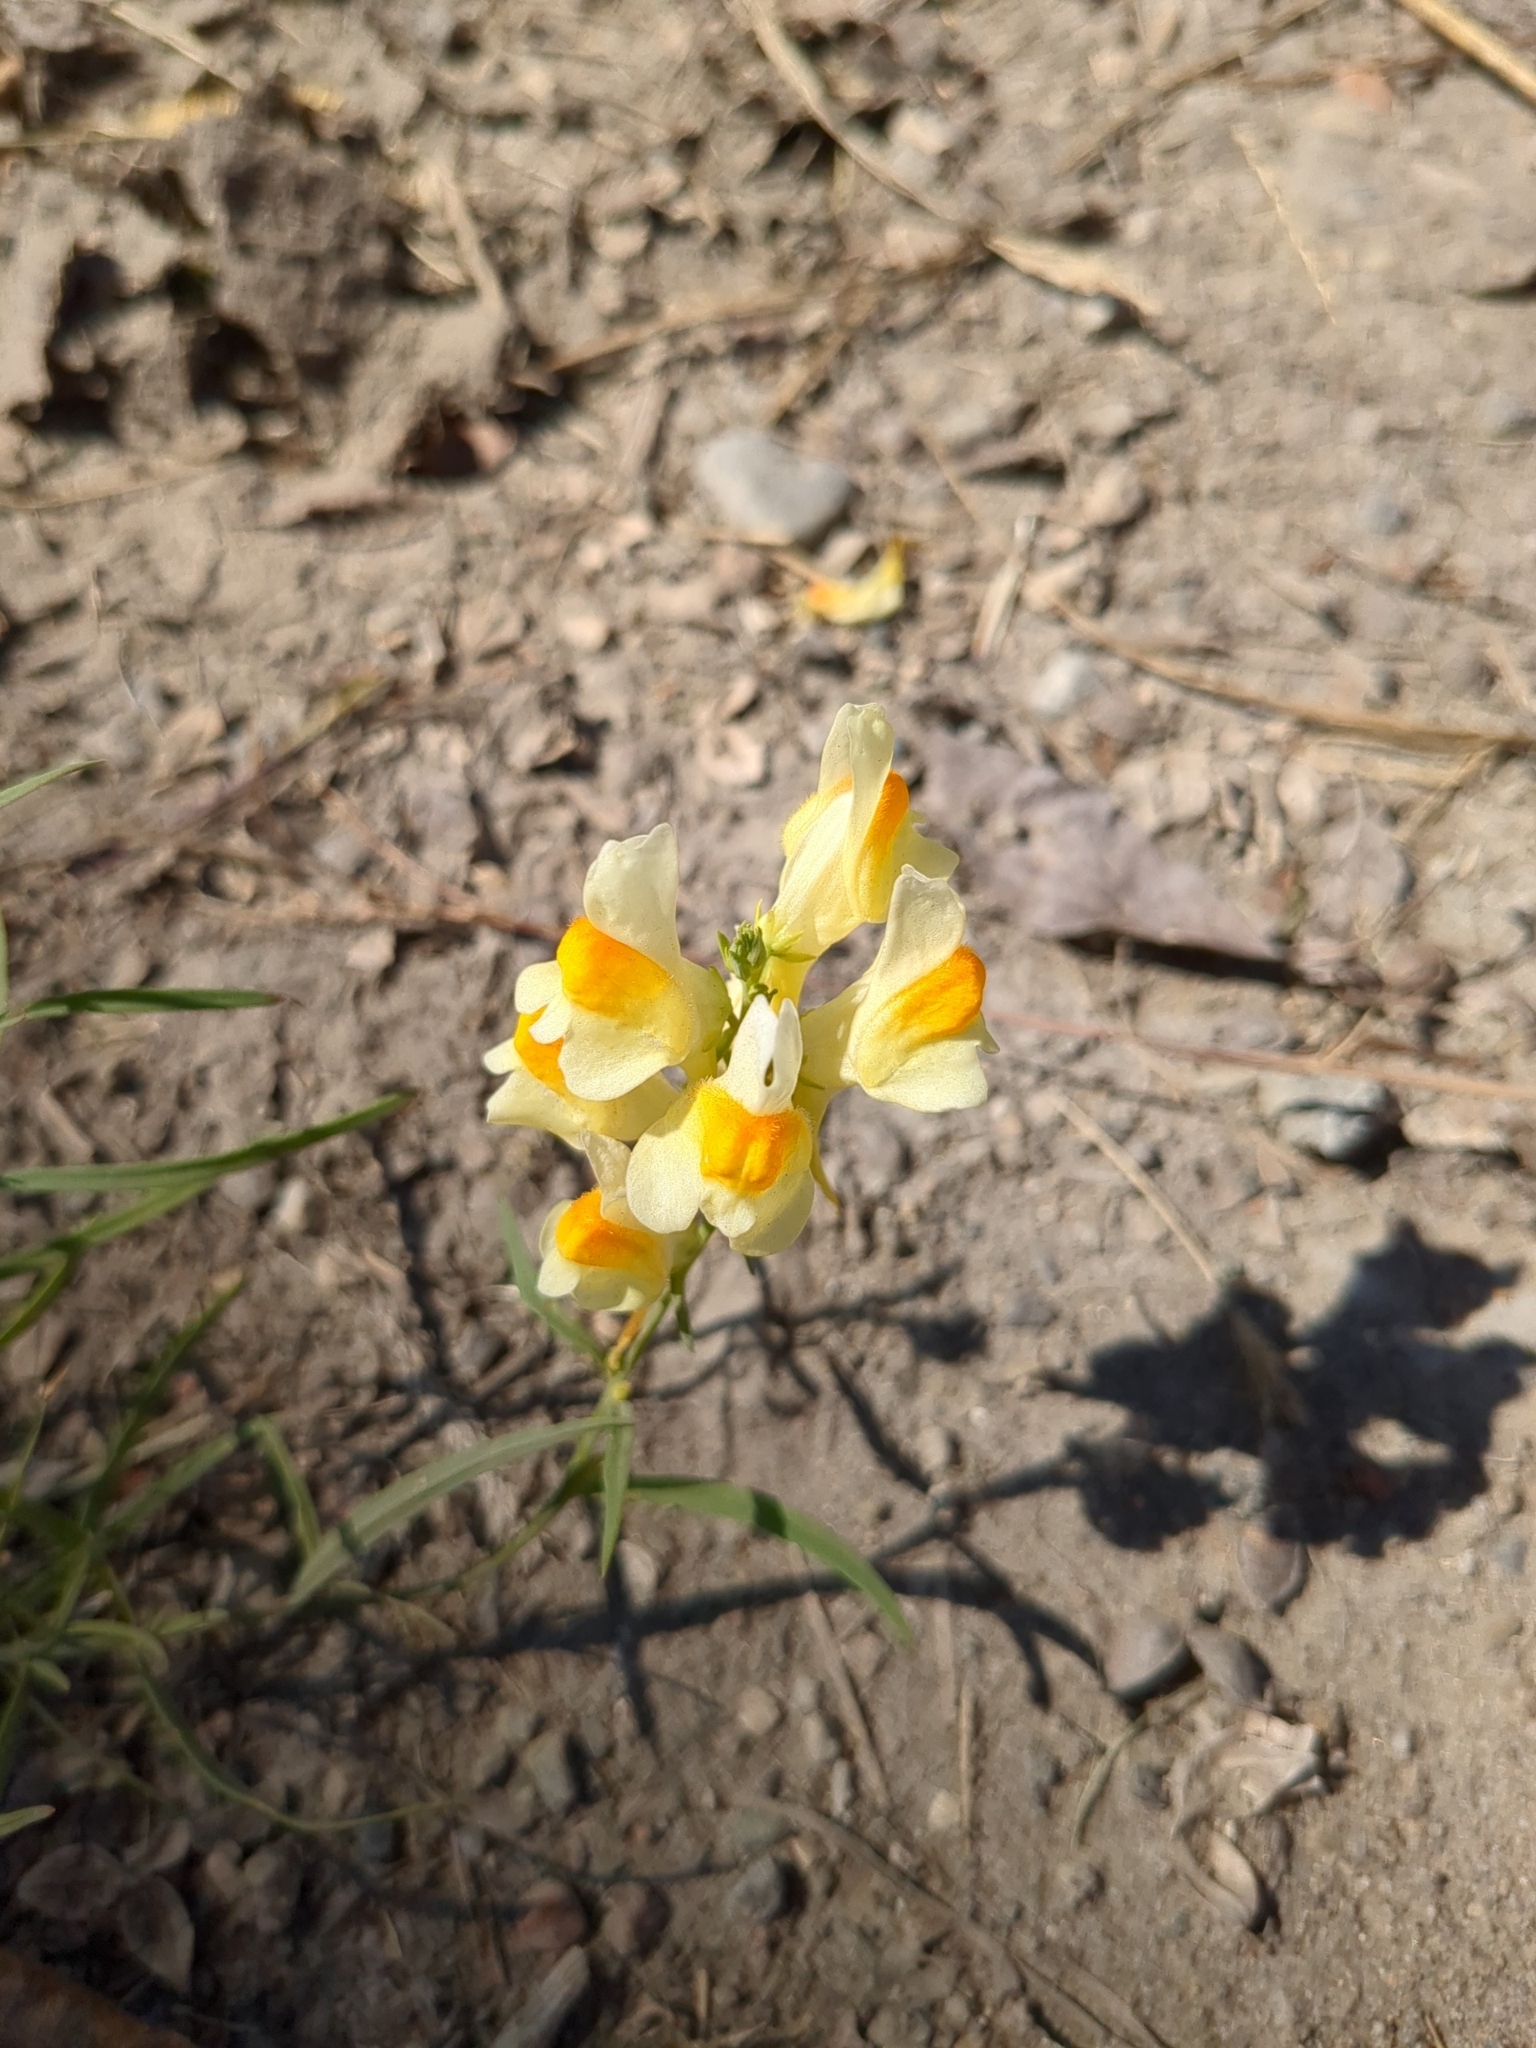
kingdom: Plantae
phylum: Tracheophyta
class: Magnoliopsida
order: Lamiales
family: Plantaginaceae
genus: Linaria
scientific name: Linaria vulgaris
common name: Butter and eggs
